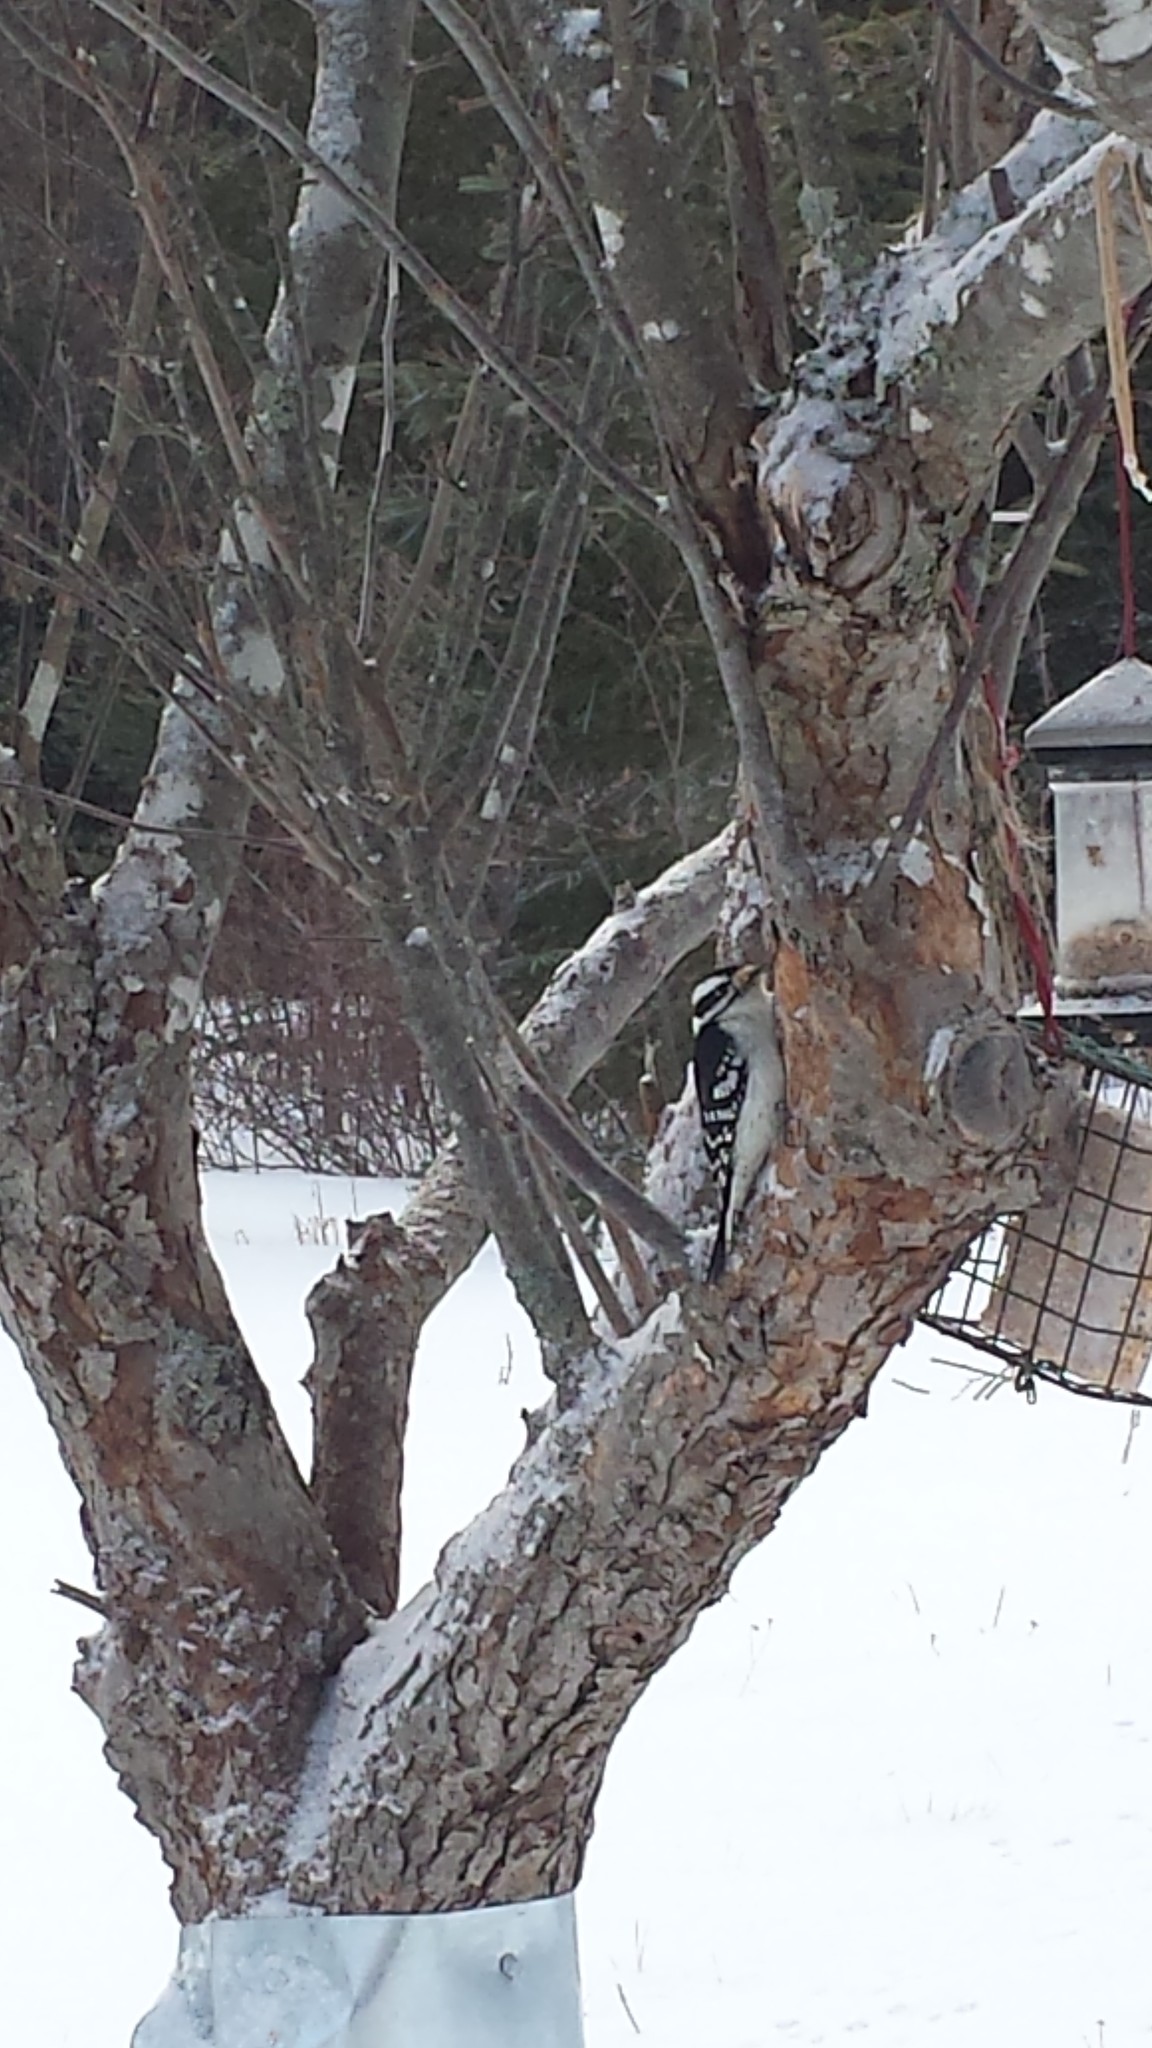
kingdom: Animalia
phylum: Chordata
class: Aves
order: Piciformes
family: Picidae
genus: Dryobates
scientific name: Dryobates pubescens
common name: Downy woodpecker
